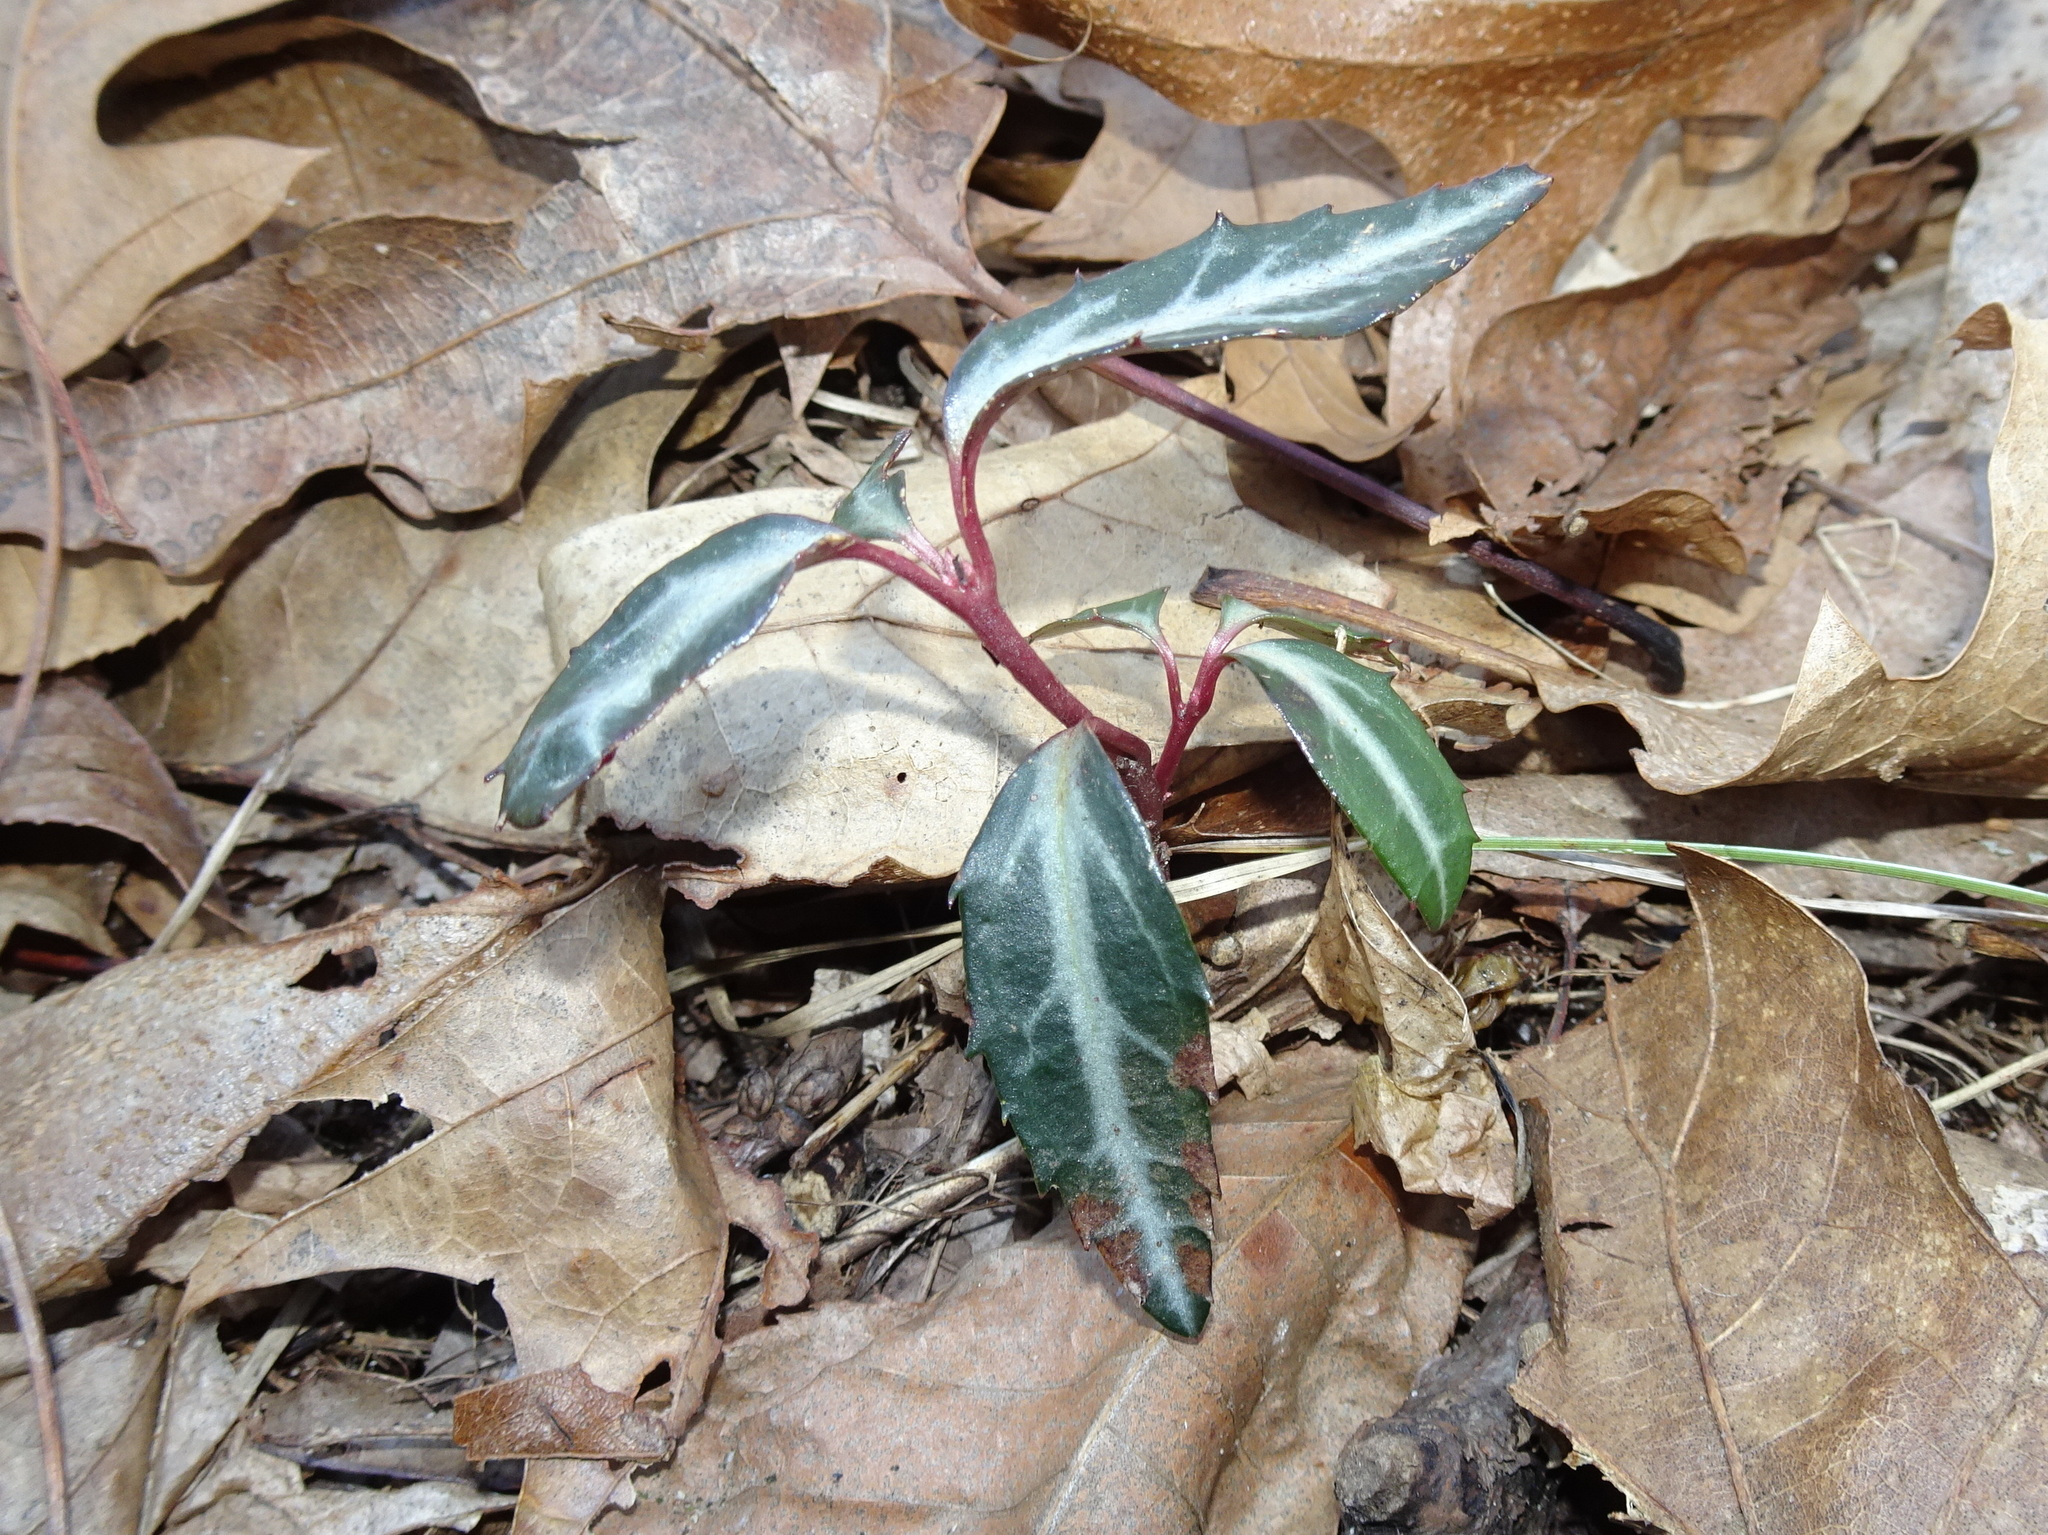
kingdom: Plantae
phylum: Tracheophyta
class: Magnoliopsida
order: Ericales
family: Ericaceae
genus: Chimaphila
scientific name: Chimaphila maculata
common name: Spotted pipsissewa
